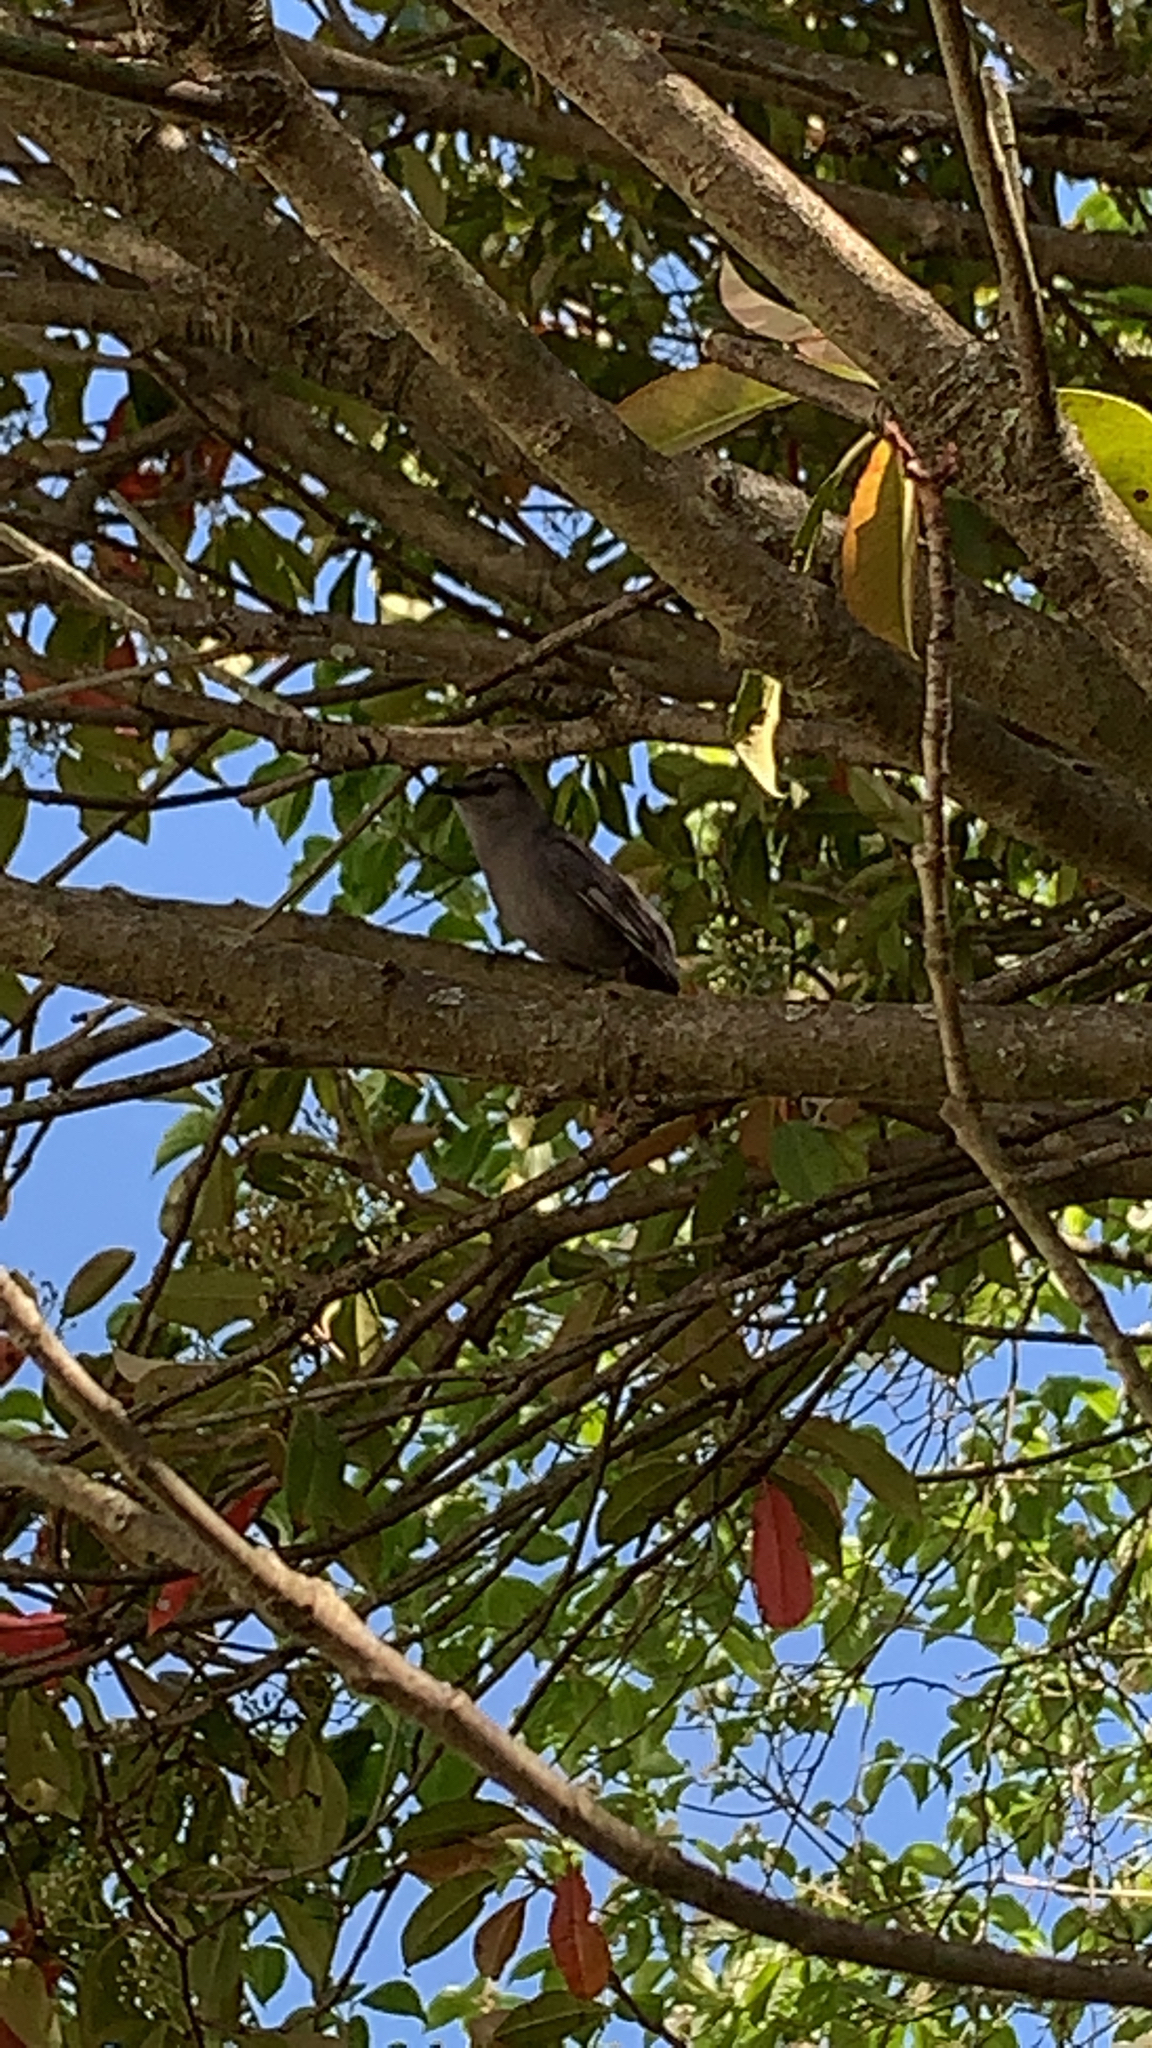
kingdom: Animalia
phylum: Chordata
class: Aves
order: Passeriformes
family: Mimidae
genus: Dumetella
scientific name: Dumetella carolinensis
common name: Gray catbird
